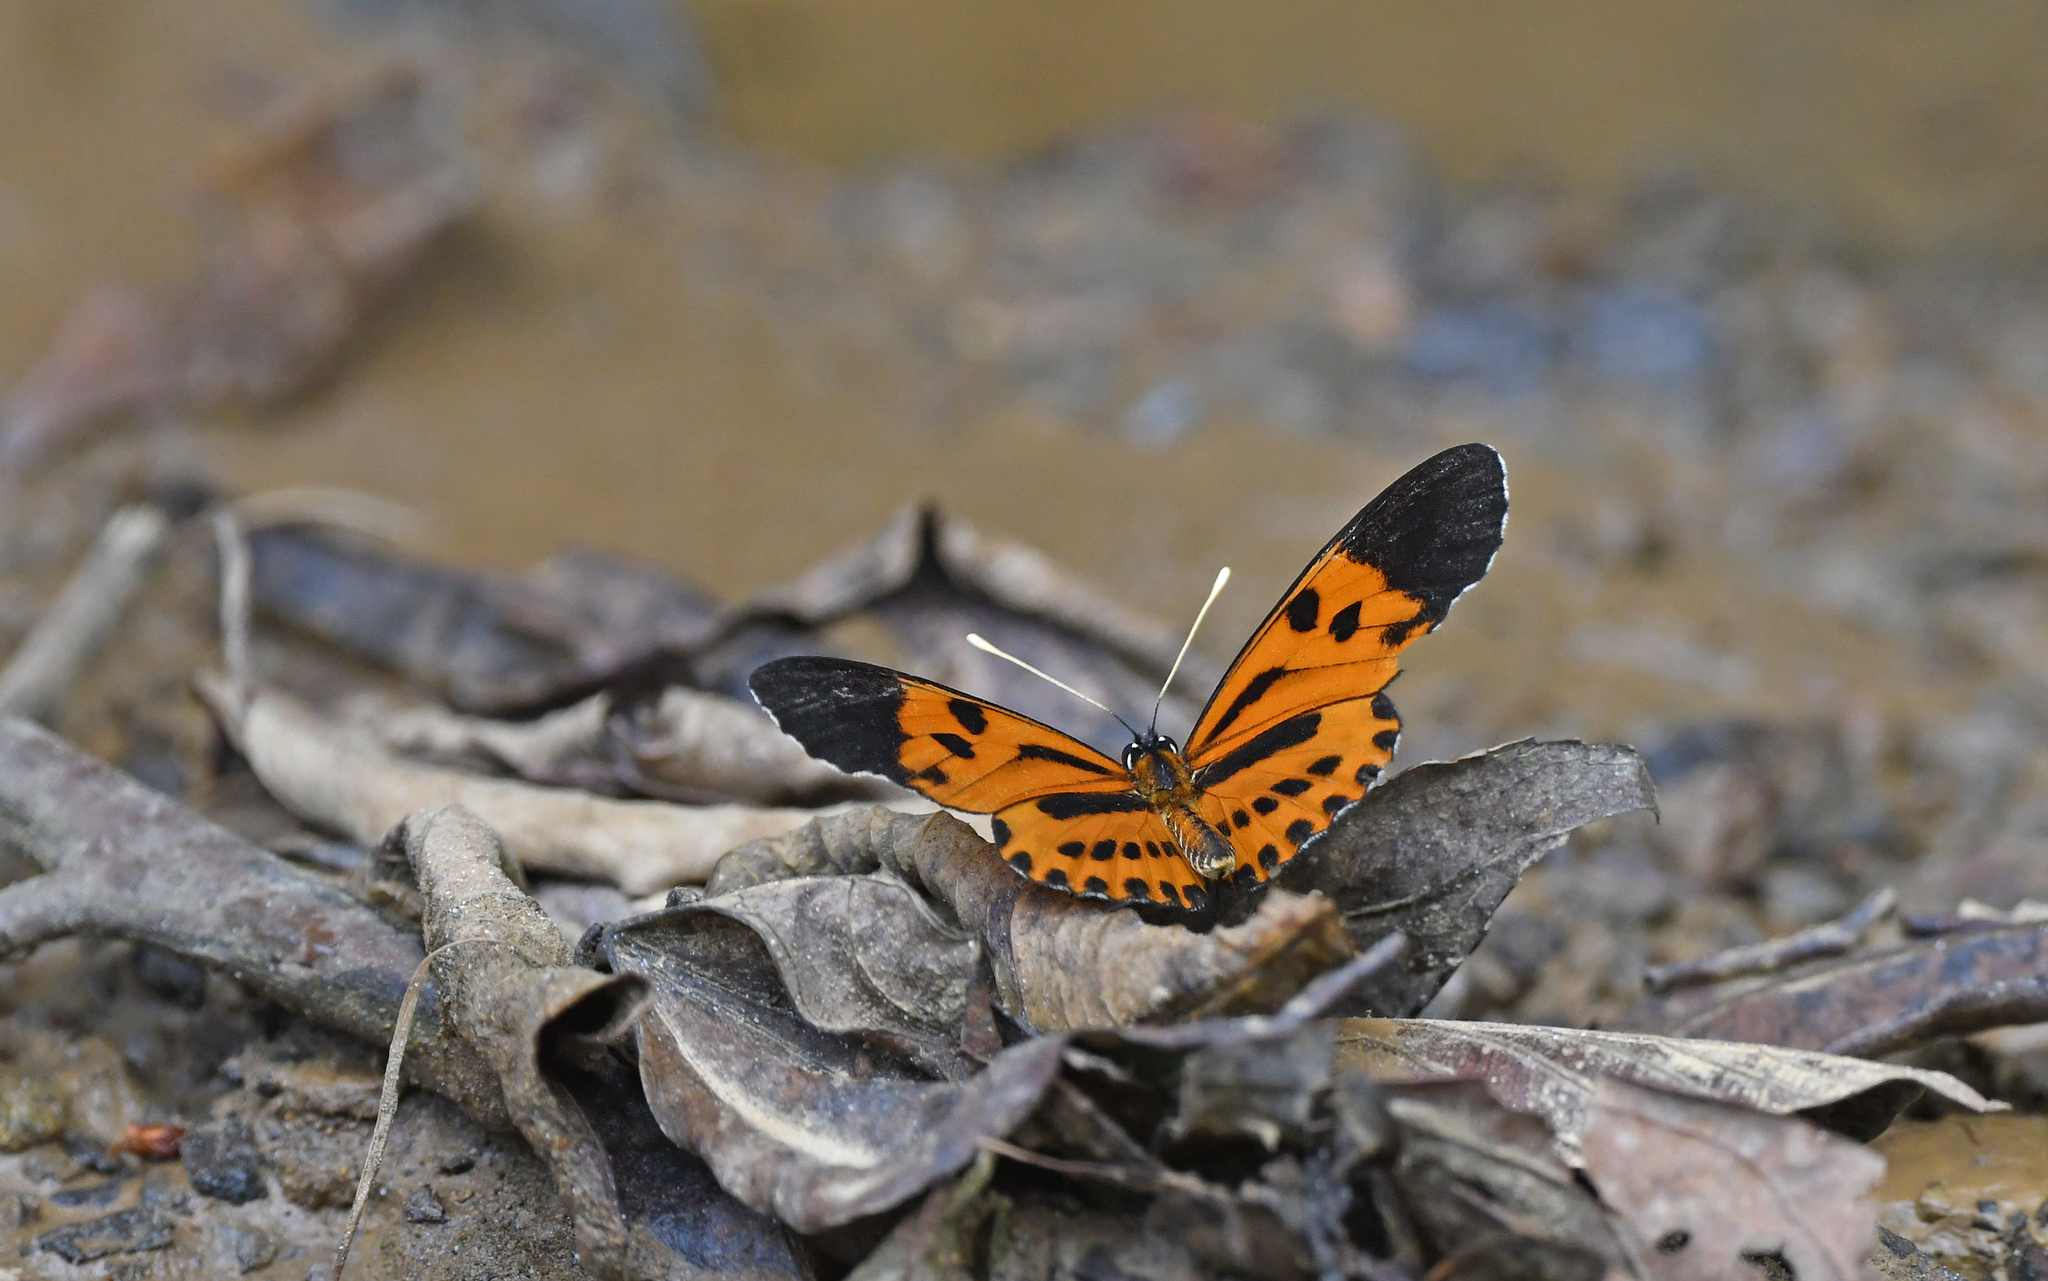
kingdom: Animalia
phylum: Arthropoda
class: Insecta
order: Lepidoptera
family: Nymphalidae
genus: Eresia
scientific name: Eresia pelonia
